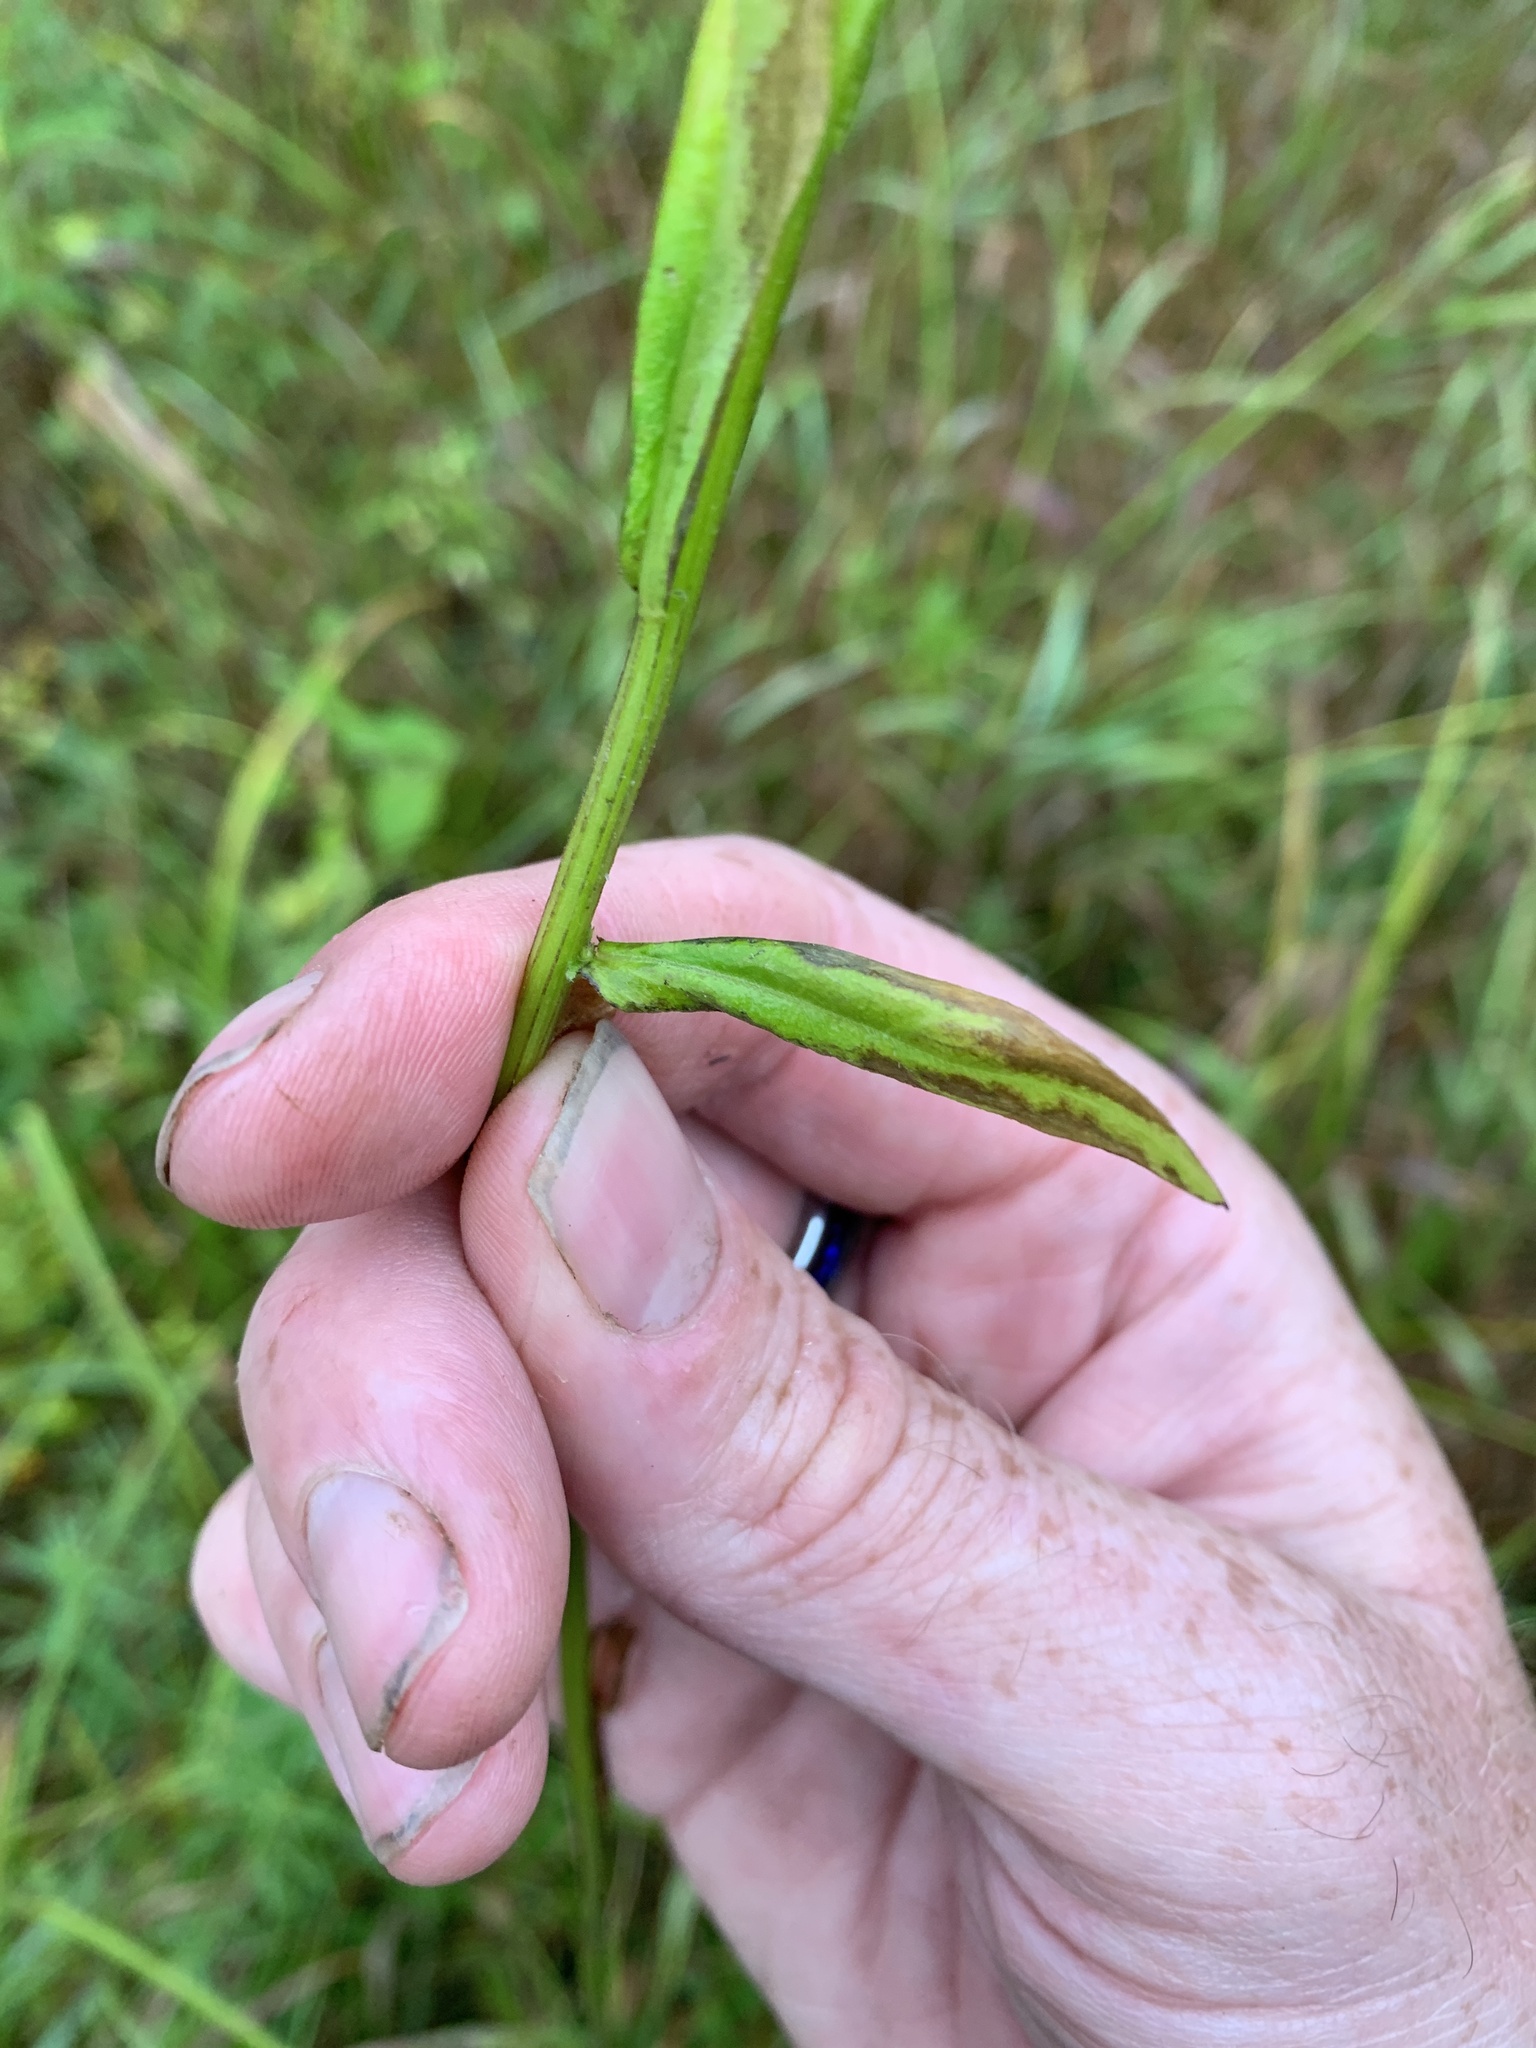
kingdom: Plantae
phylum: Tracheophyta
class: Magnoliopsida
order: Asterales
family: Asteraceae
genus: Erigeron
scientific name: Erigeron strigosus
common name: Common eastern fleabane
